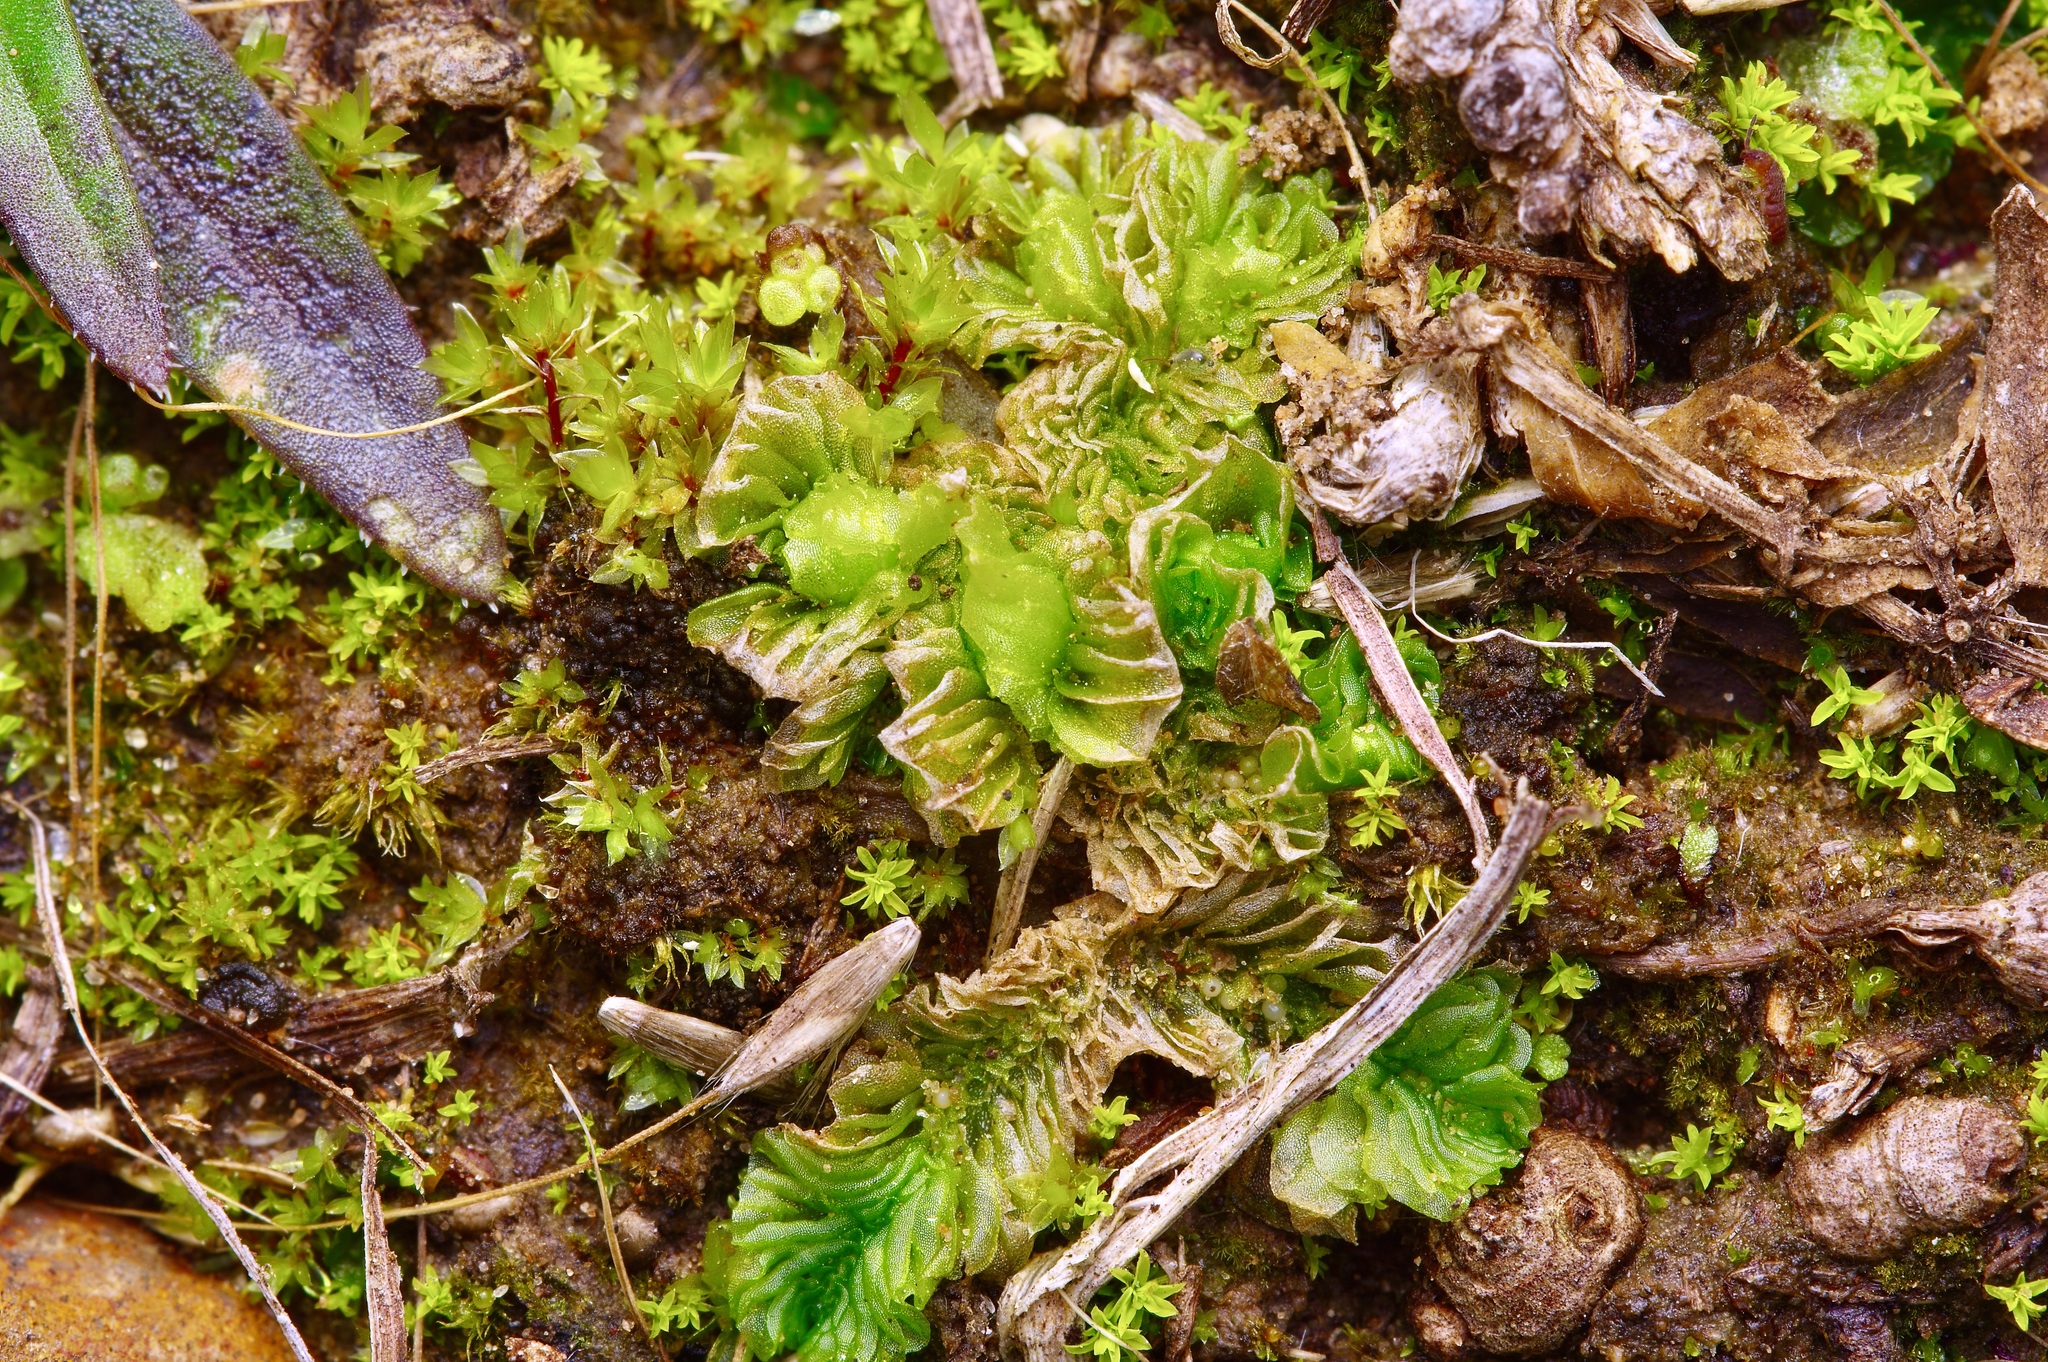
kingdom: Plantae
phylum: Marchantiophyta
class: Jungermanniopsida
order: Fossombroniales
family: Petalophyllaceae
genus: Petalophyllum
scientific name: Petalophyllum americanum
